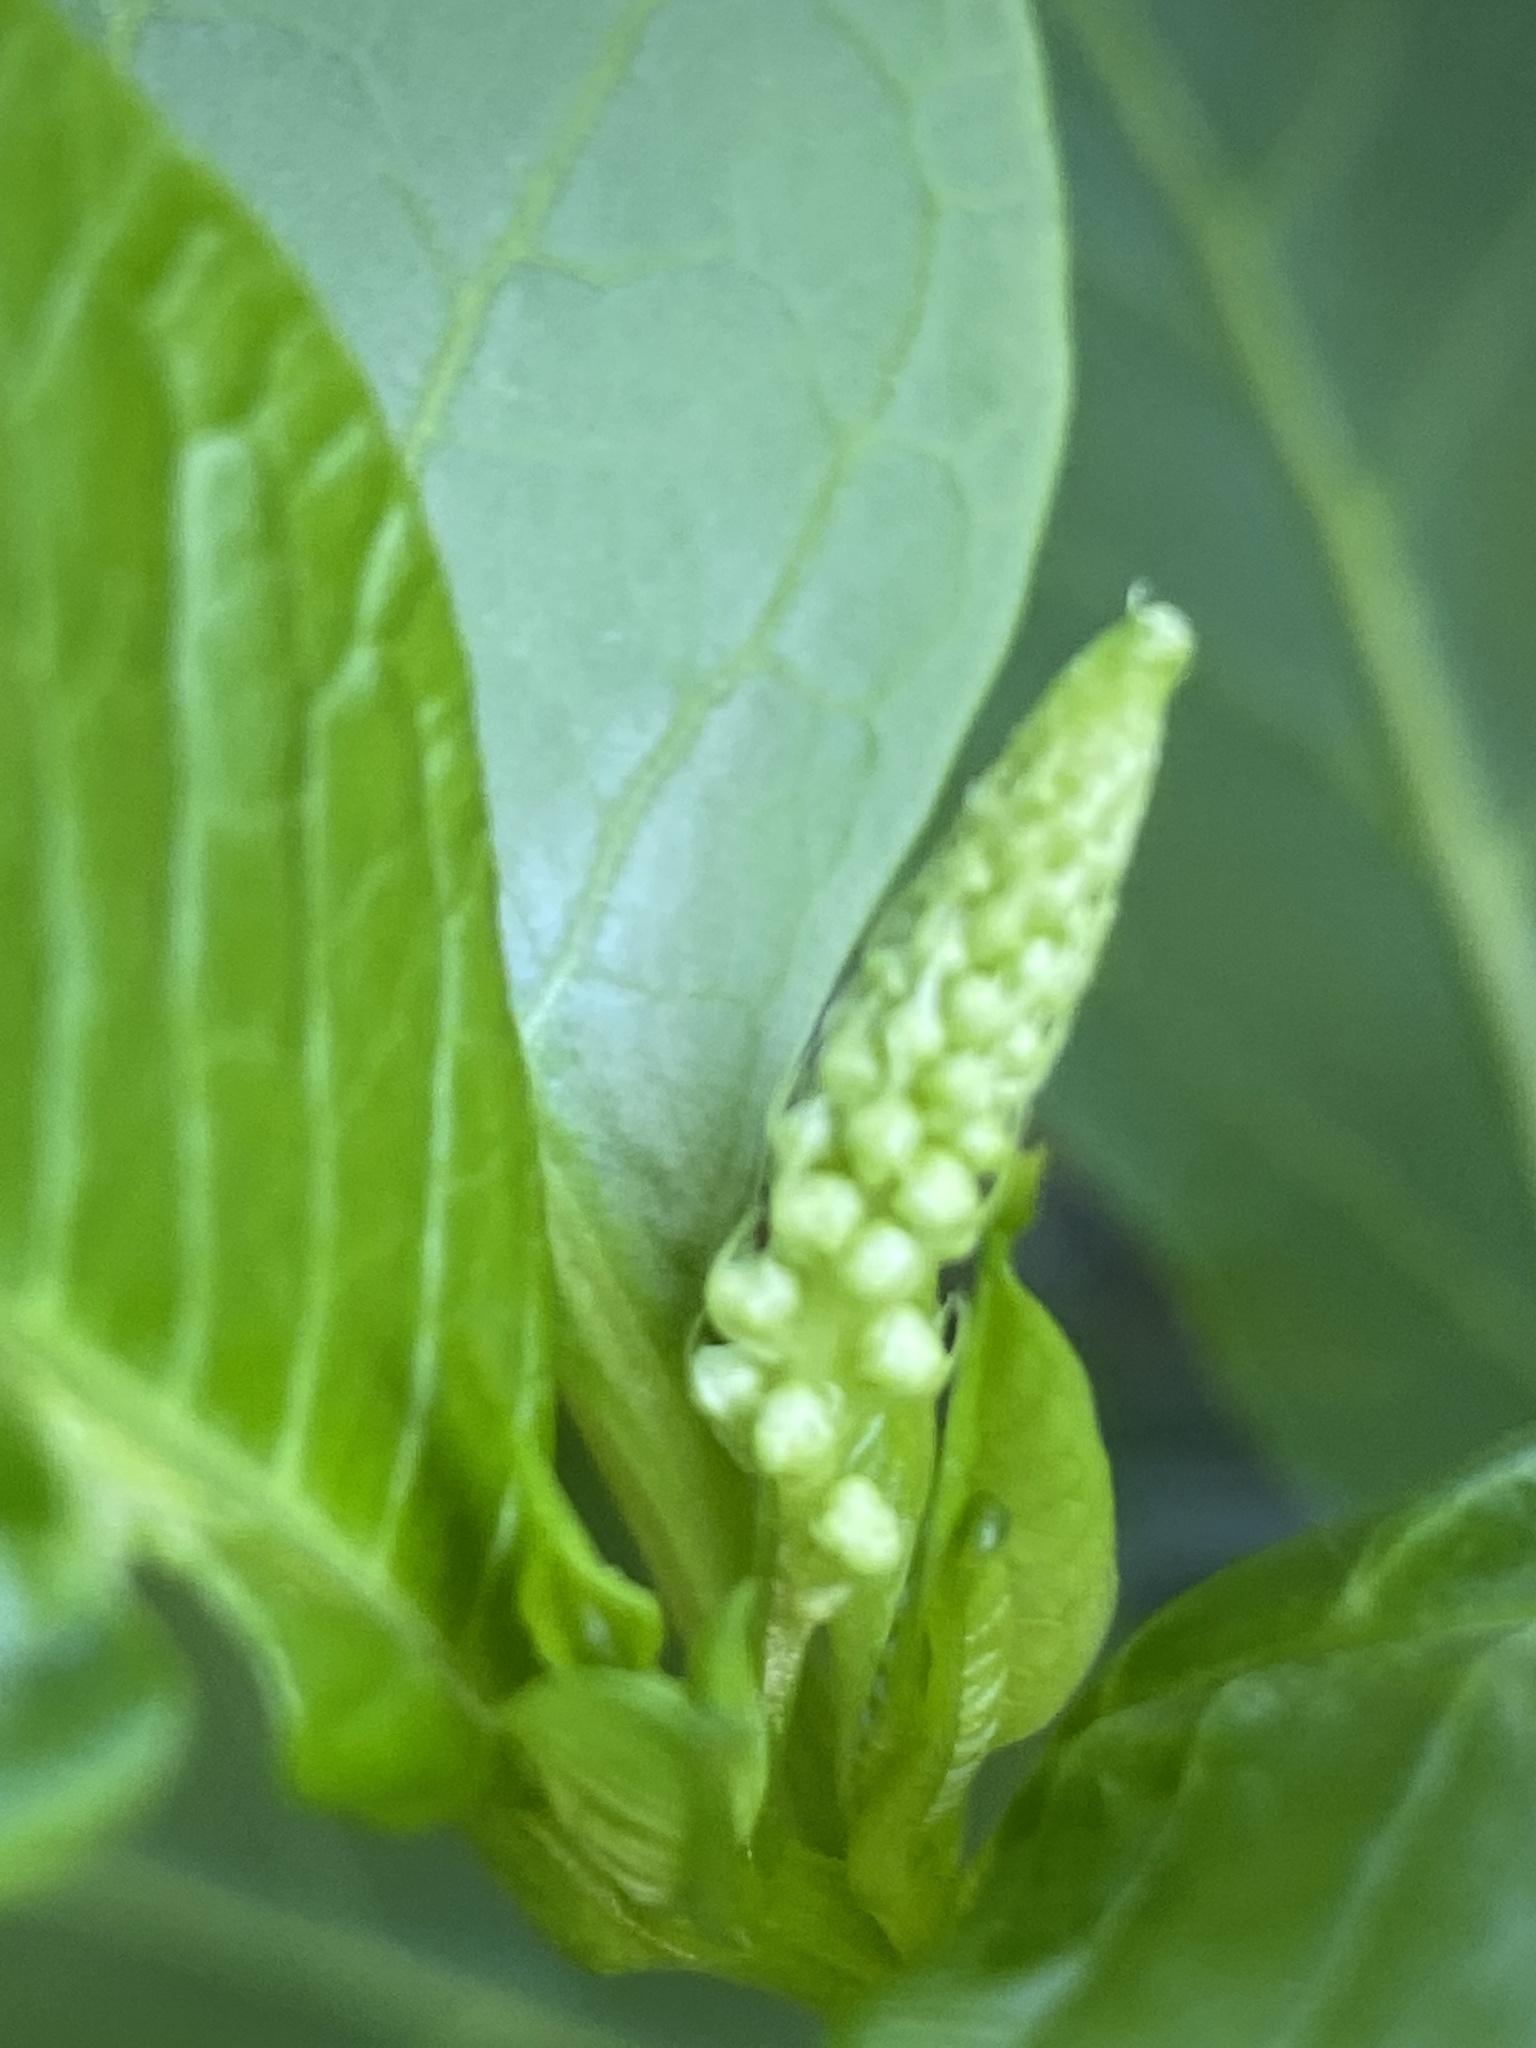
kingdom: Plantae
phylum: Tracheophyta
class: Magnoliopsida
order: Caryophyllales
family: Phytolaccaceae
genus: Phytolacca
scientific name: Phytolacca americana
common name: American pokeweed
